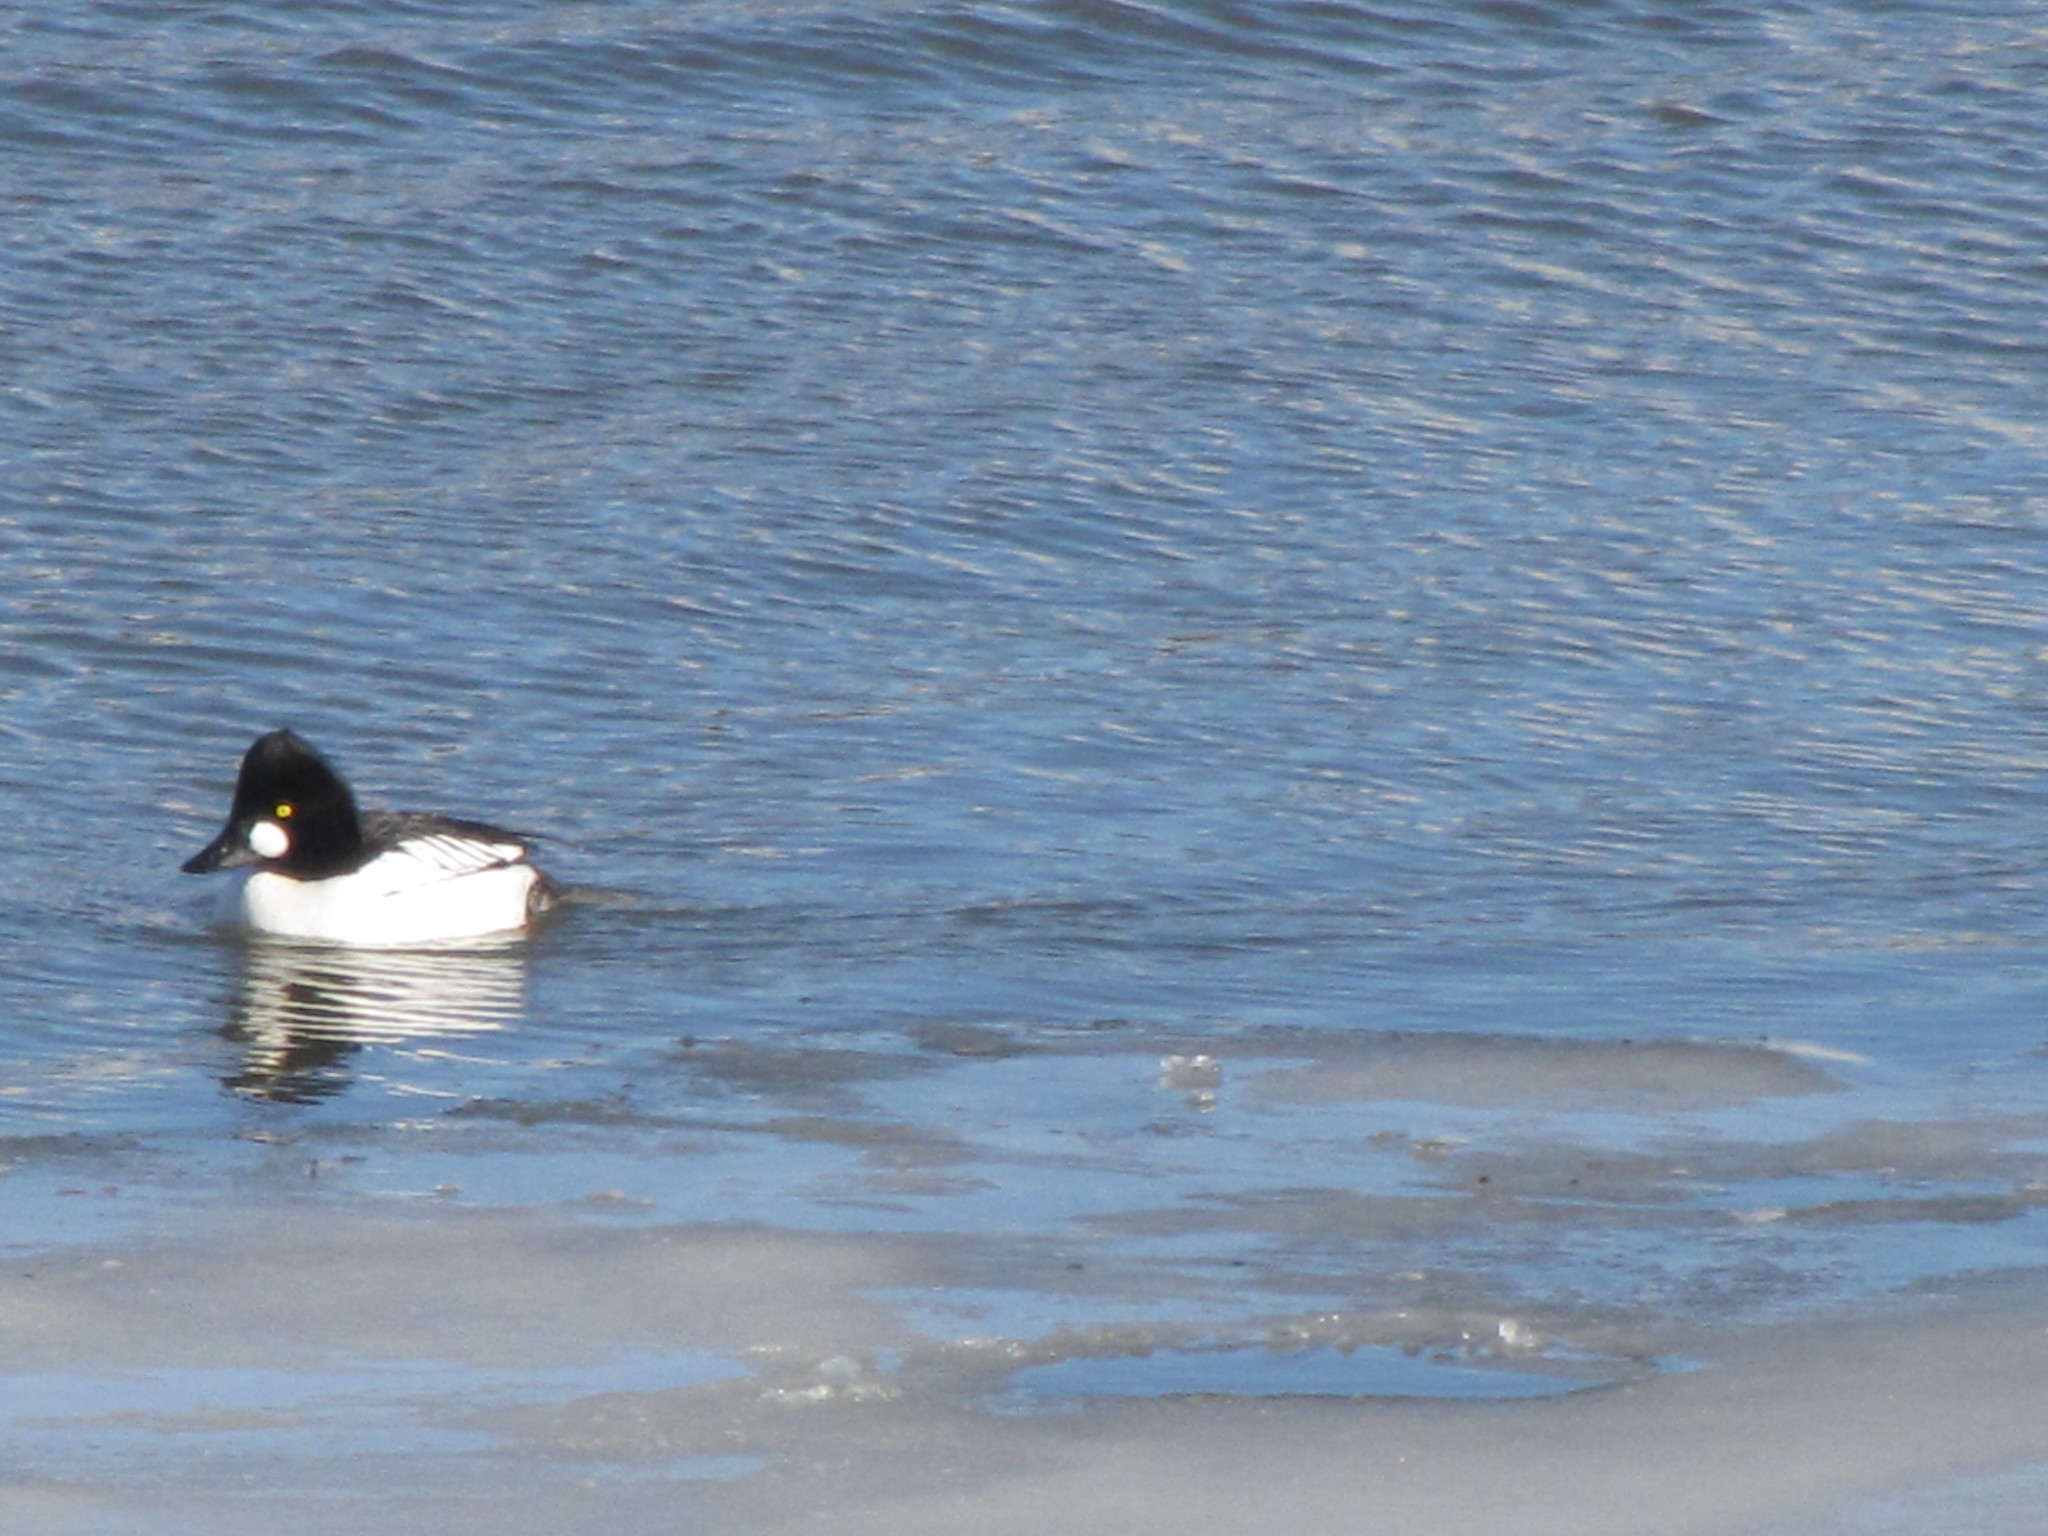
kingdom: Animalia
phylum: Chordata
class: Aves
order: Anseriformes
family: Anatidae
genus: Bucephala
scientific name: Bucephala clangula
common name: Common goldeneye
